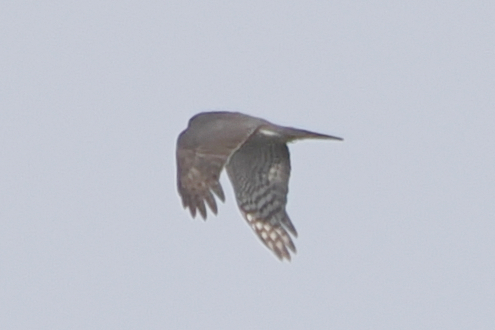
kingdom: Animalia
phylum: Chordata
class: Aves
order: Accipitriformes
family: Accipitridae
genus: Accipiter
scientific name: Accipiter nisus
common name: Eurasian sparrowhawk
